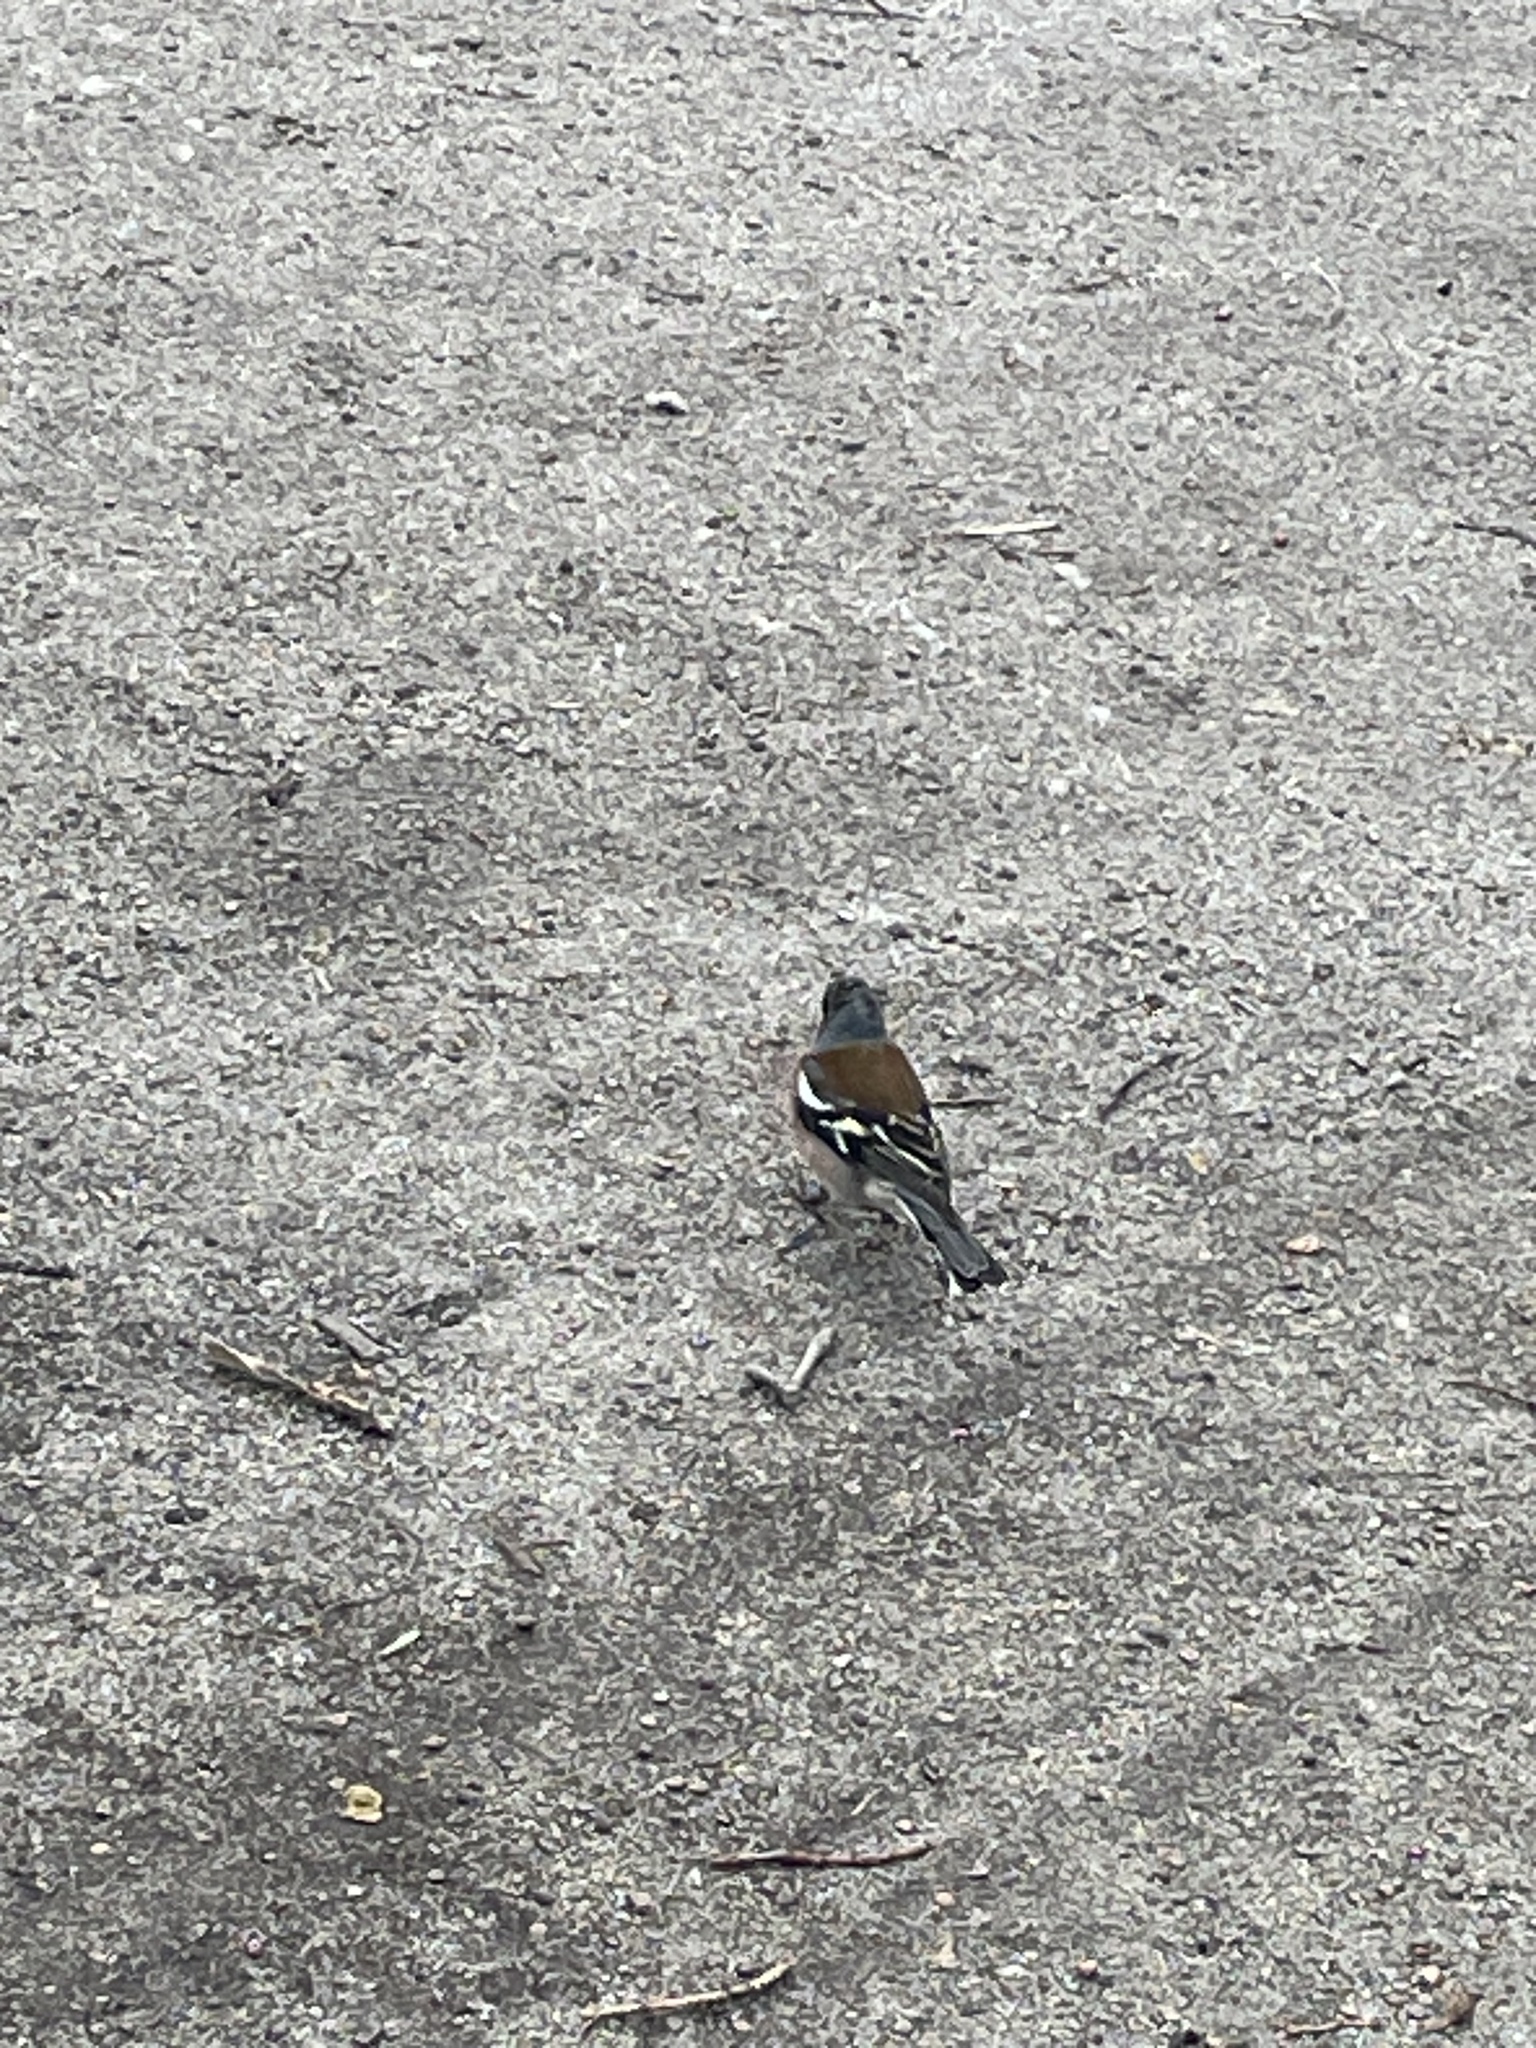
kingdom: Animalia
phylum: Chordata
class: Aves
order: Passeriformes
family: Fringillidae
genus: Fringilla
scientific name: Fringilla coelebs
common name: Common chaffinch
